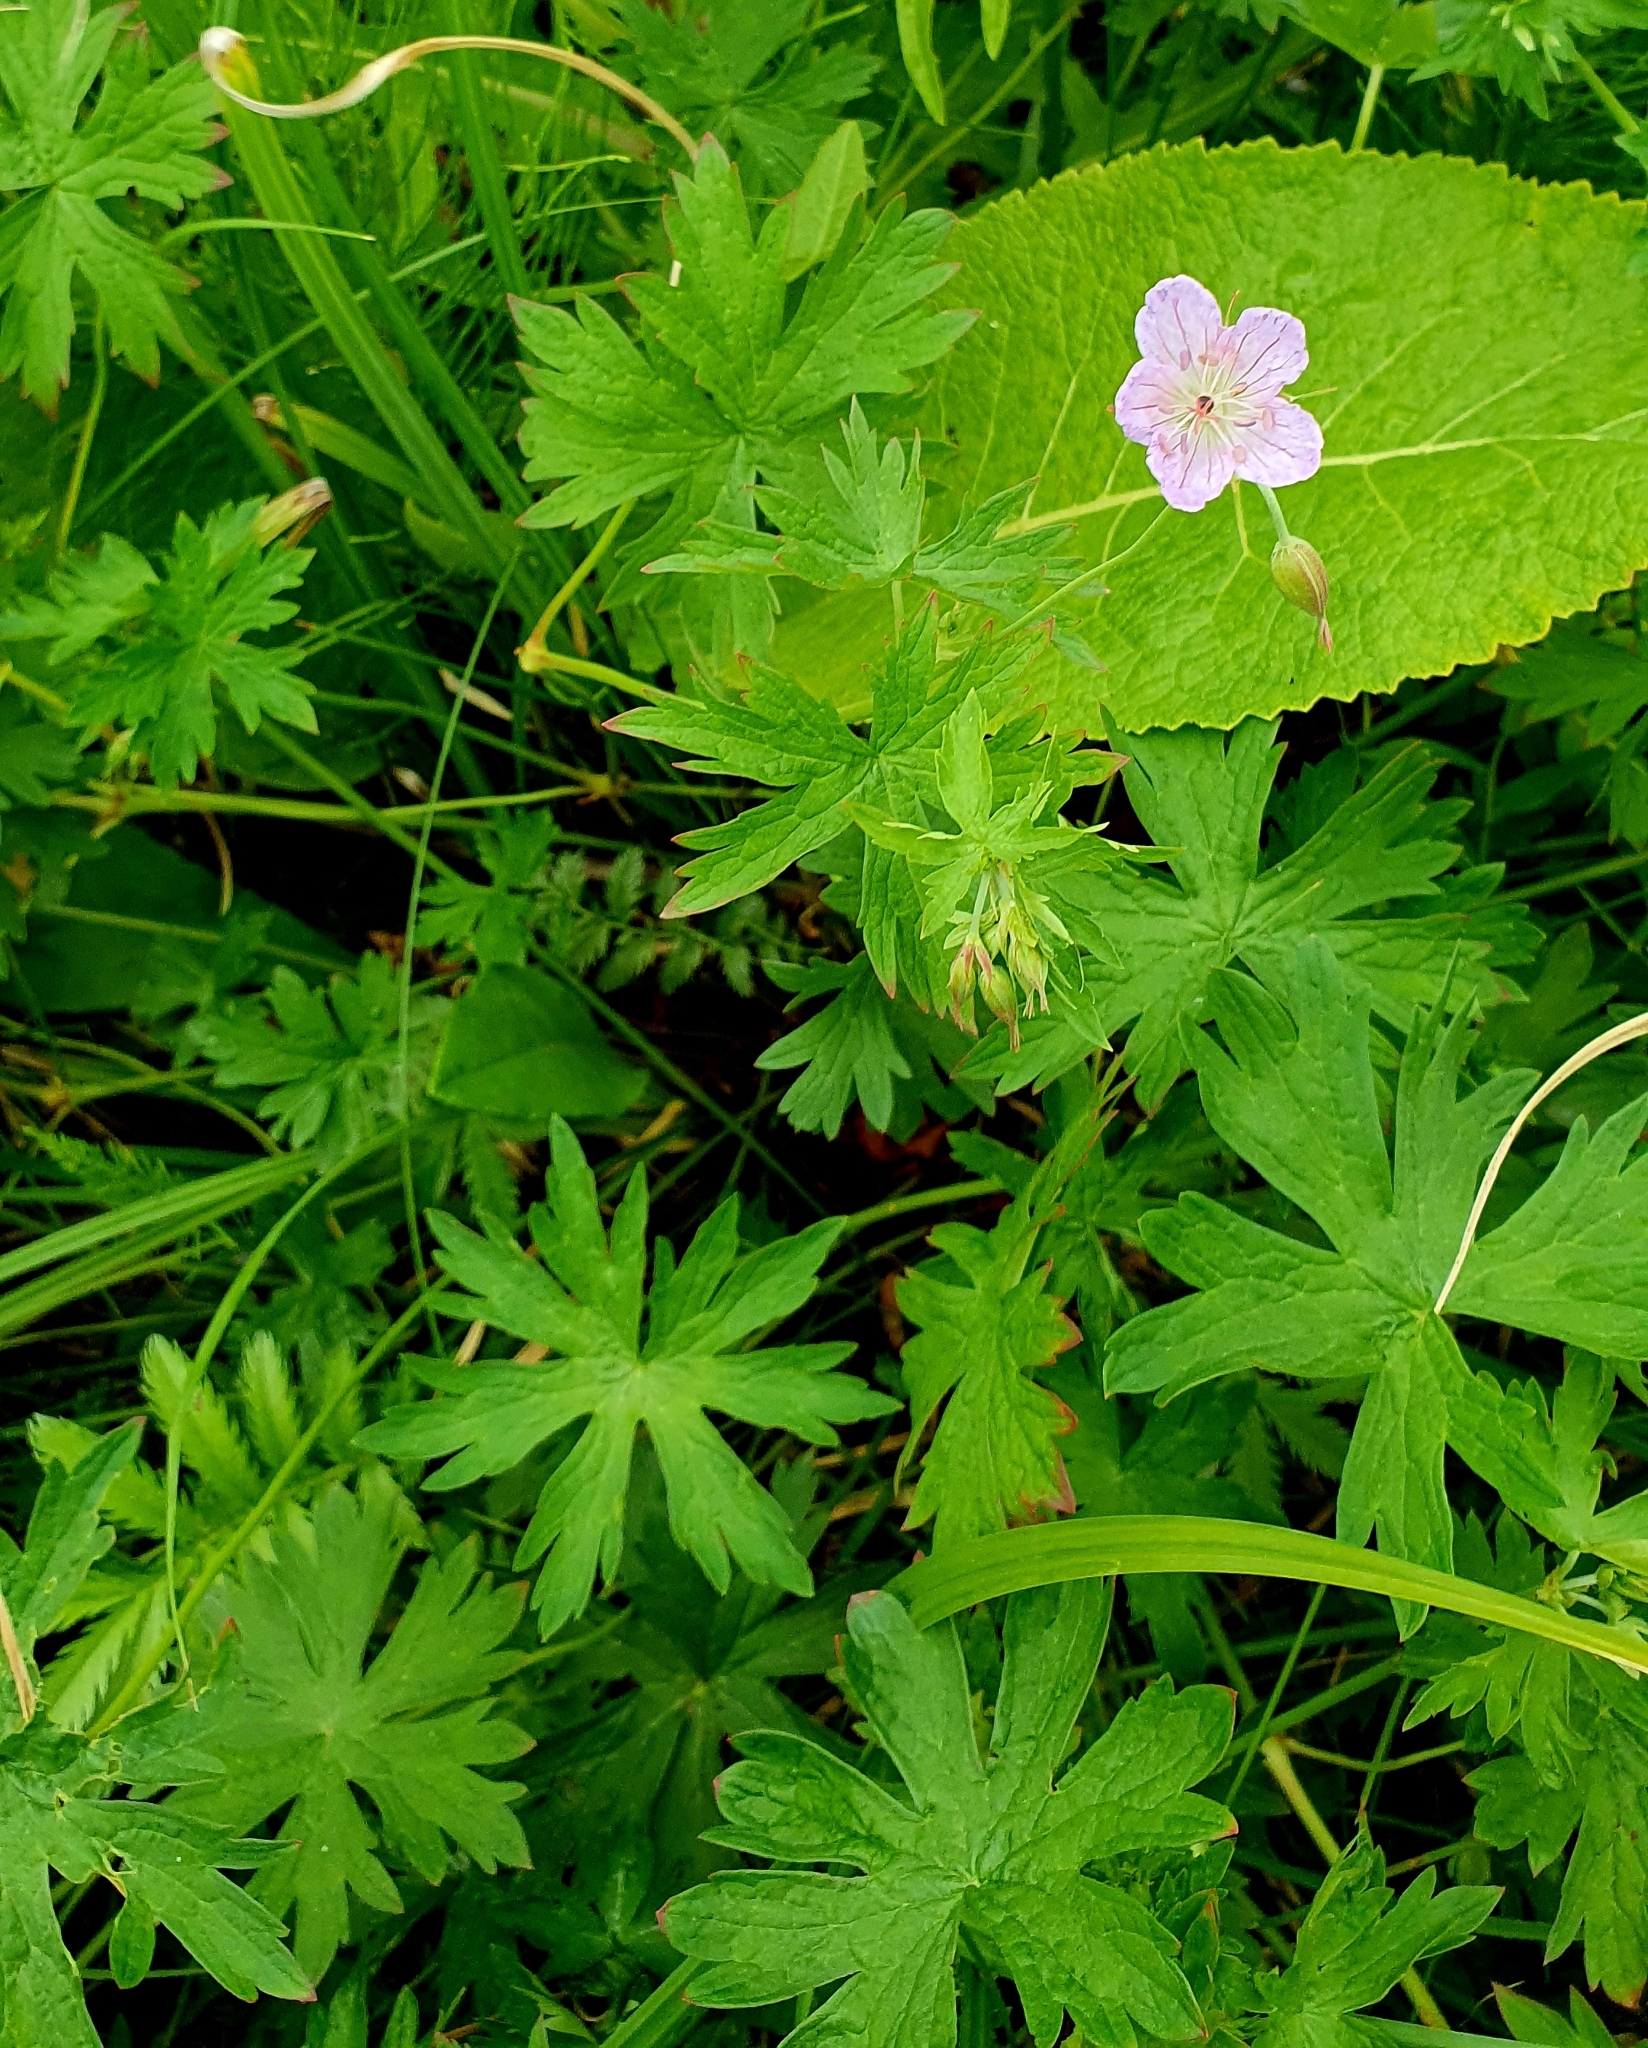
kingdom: Plantae
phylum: Tracheophyta
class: Magnoliopsida
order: Geraniales
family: Geraniaceae
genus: Geranium
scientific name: Geranium collinum
